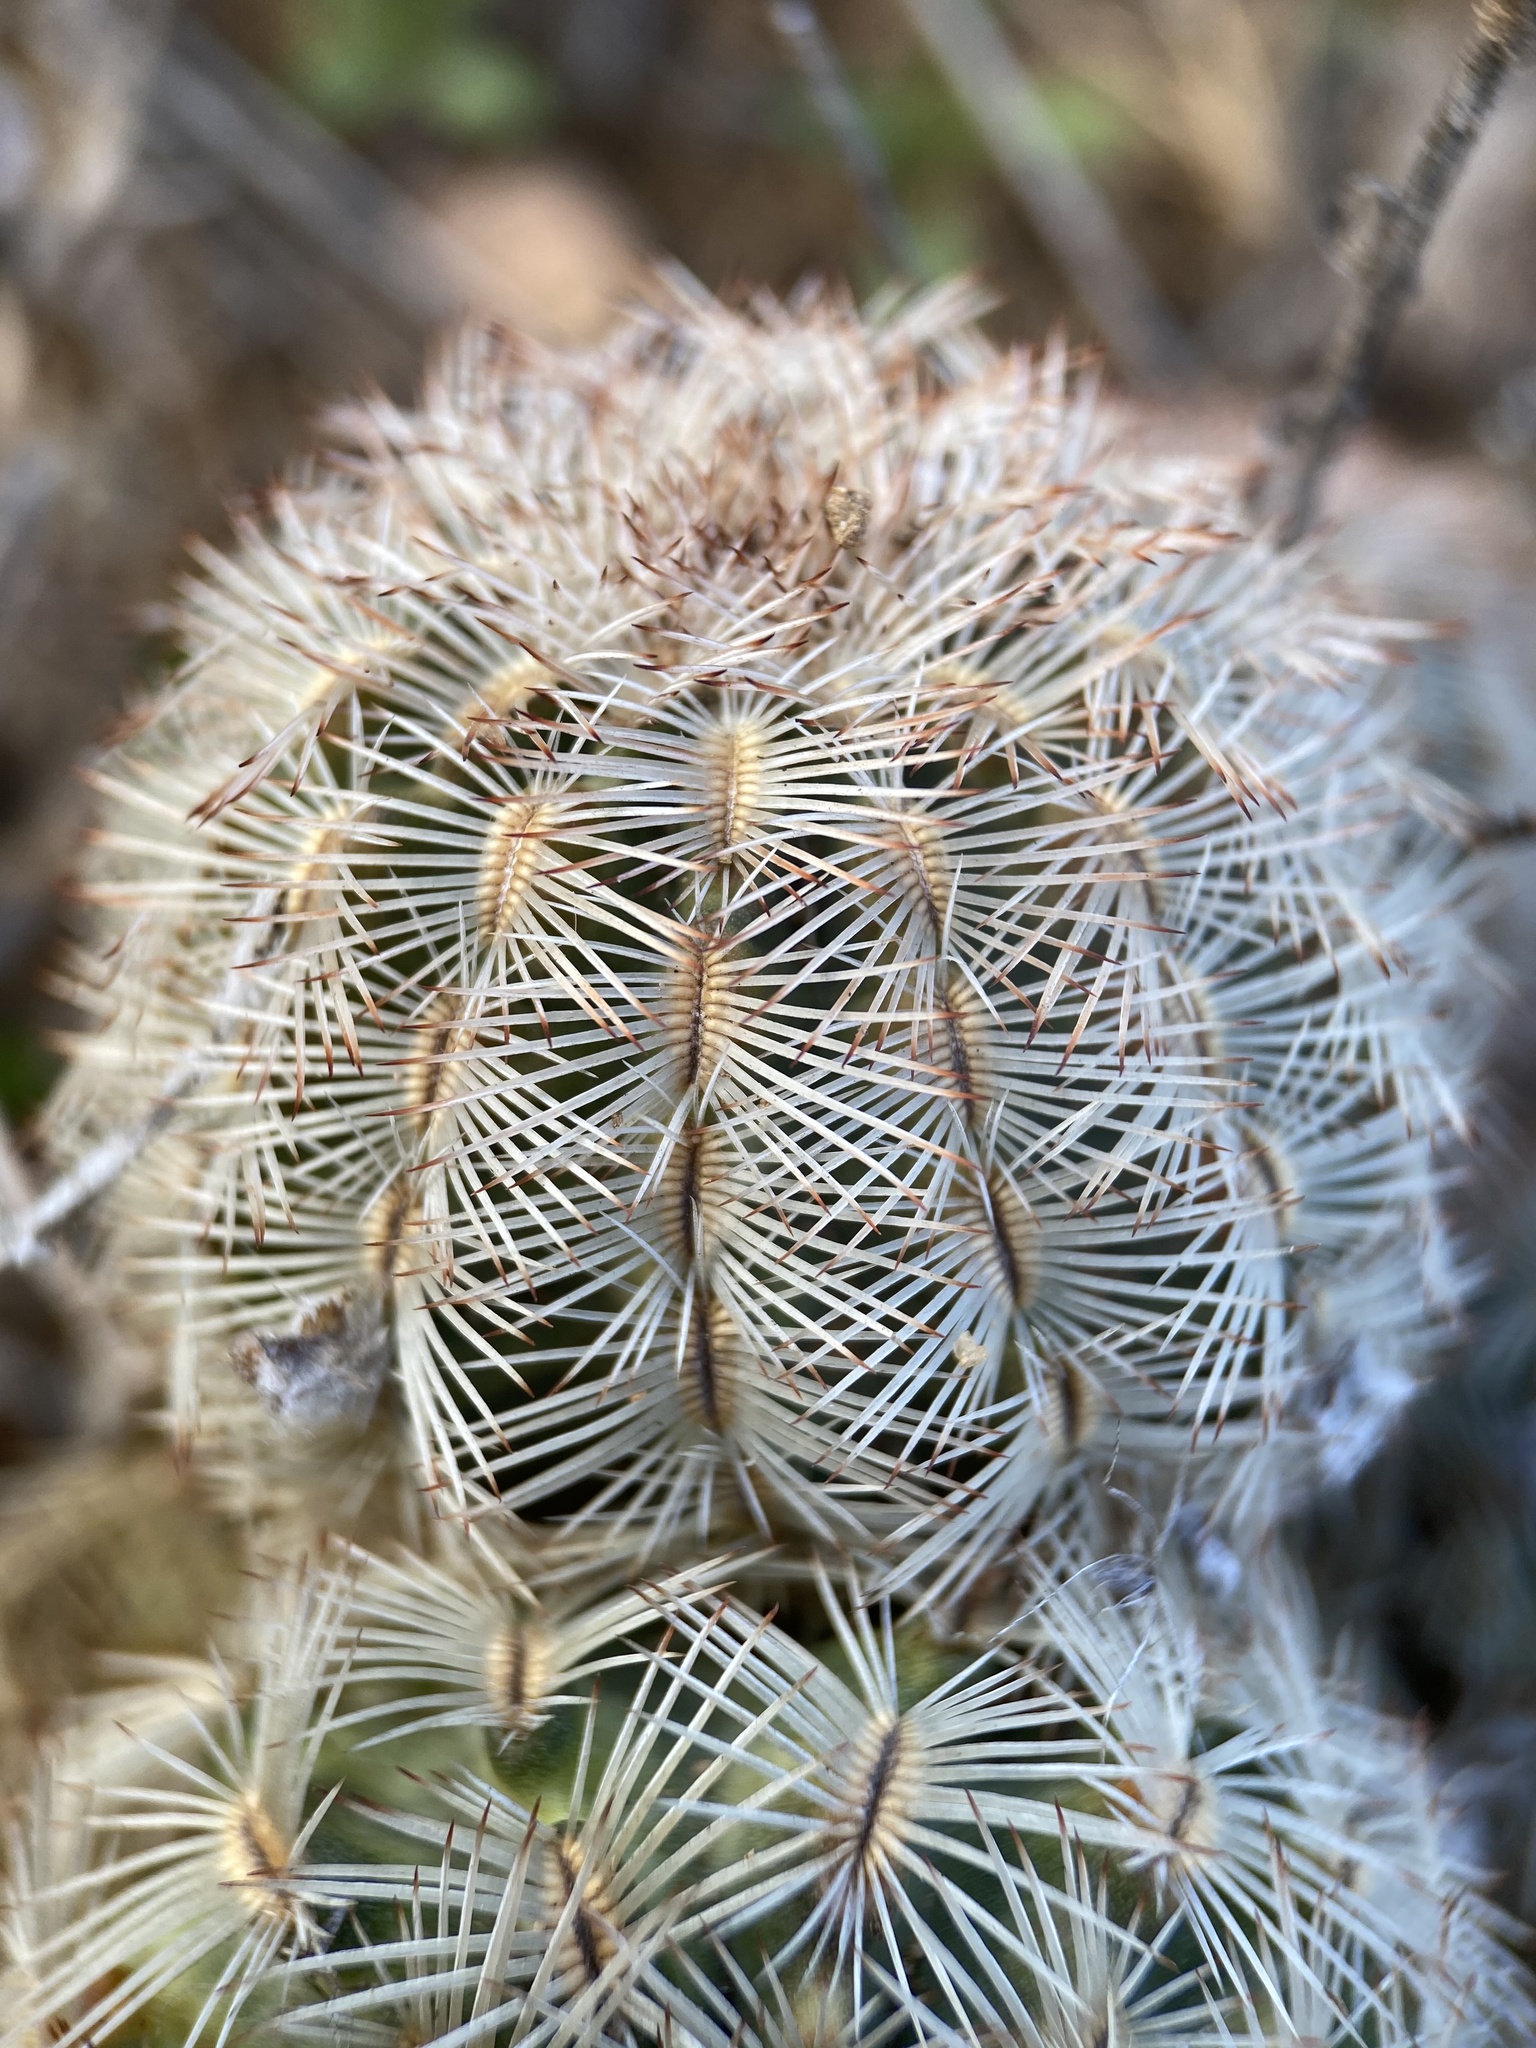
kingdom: Plantae
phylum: Tracheophyta
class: Magnoliopsida
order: Caryophyllales
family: Cactaceae
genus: Echinocereus
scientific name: Echinocereus reichenbachii
